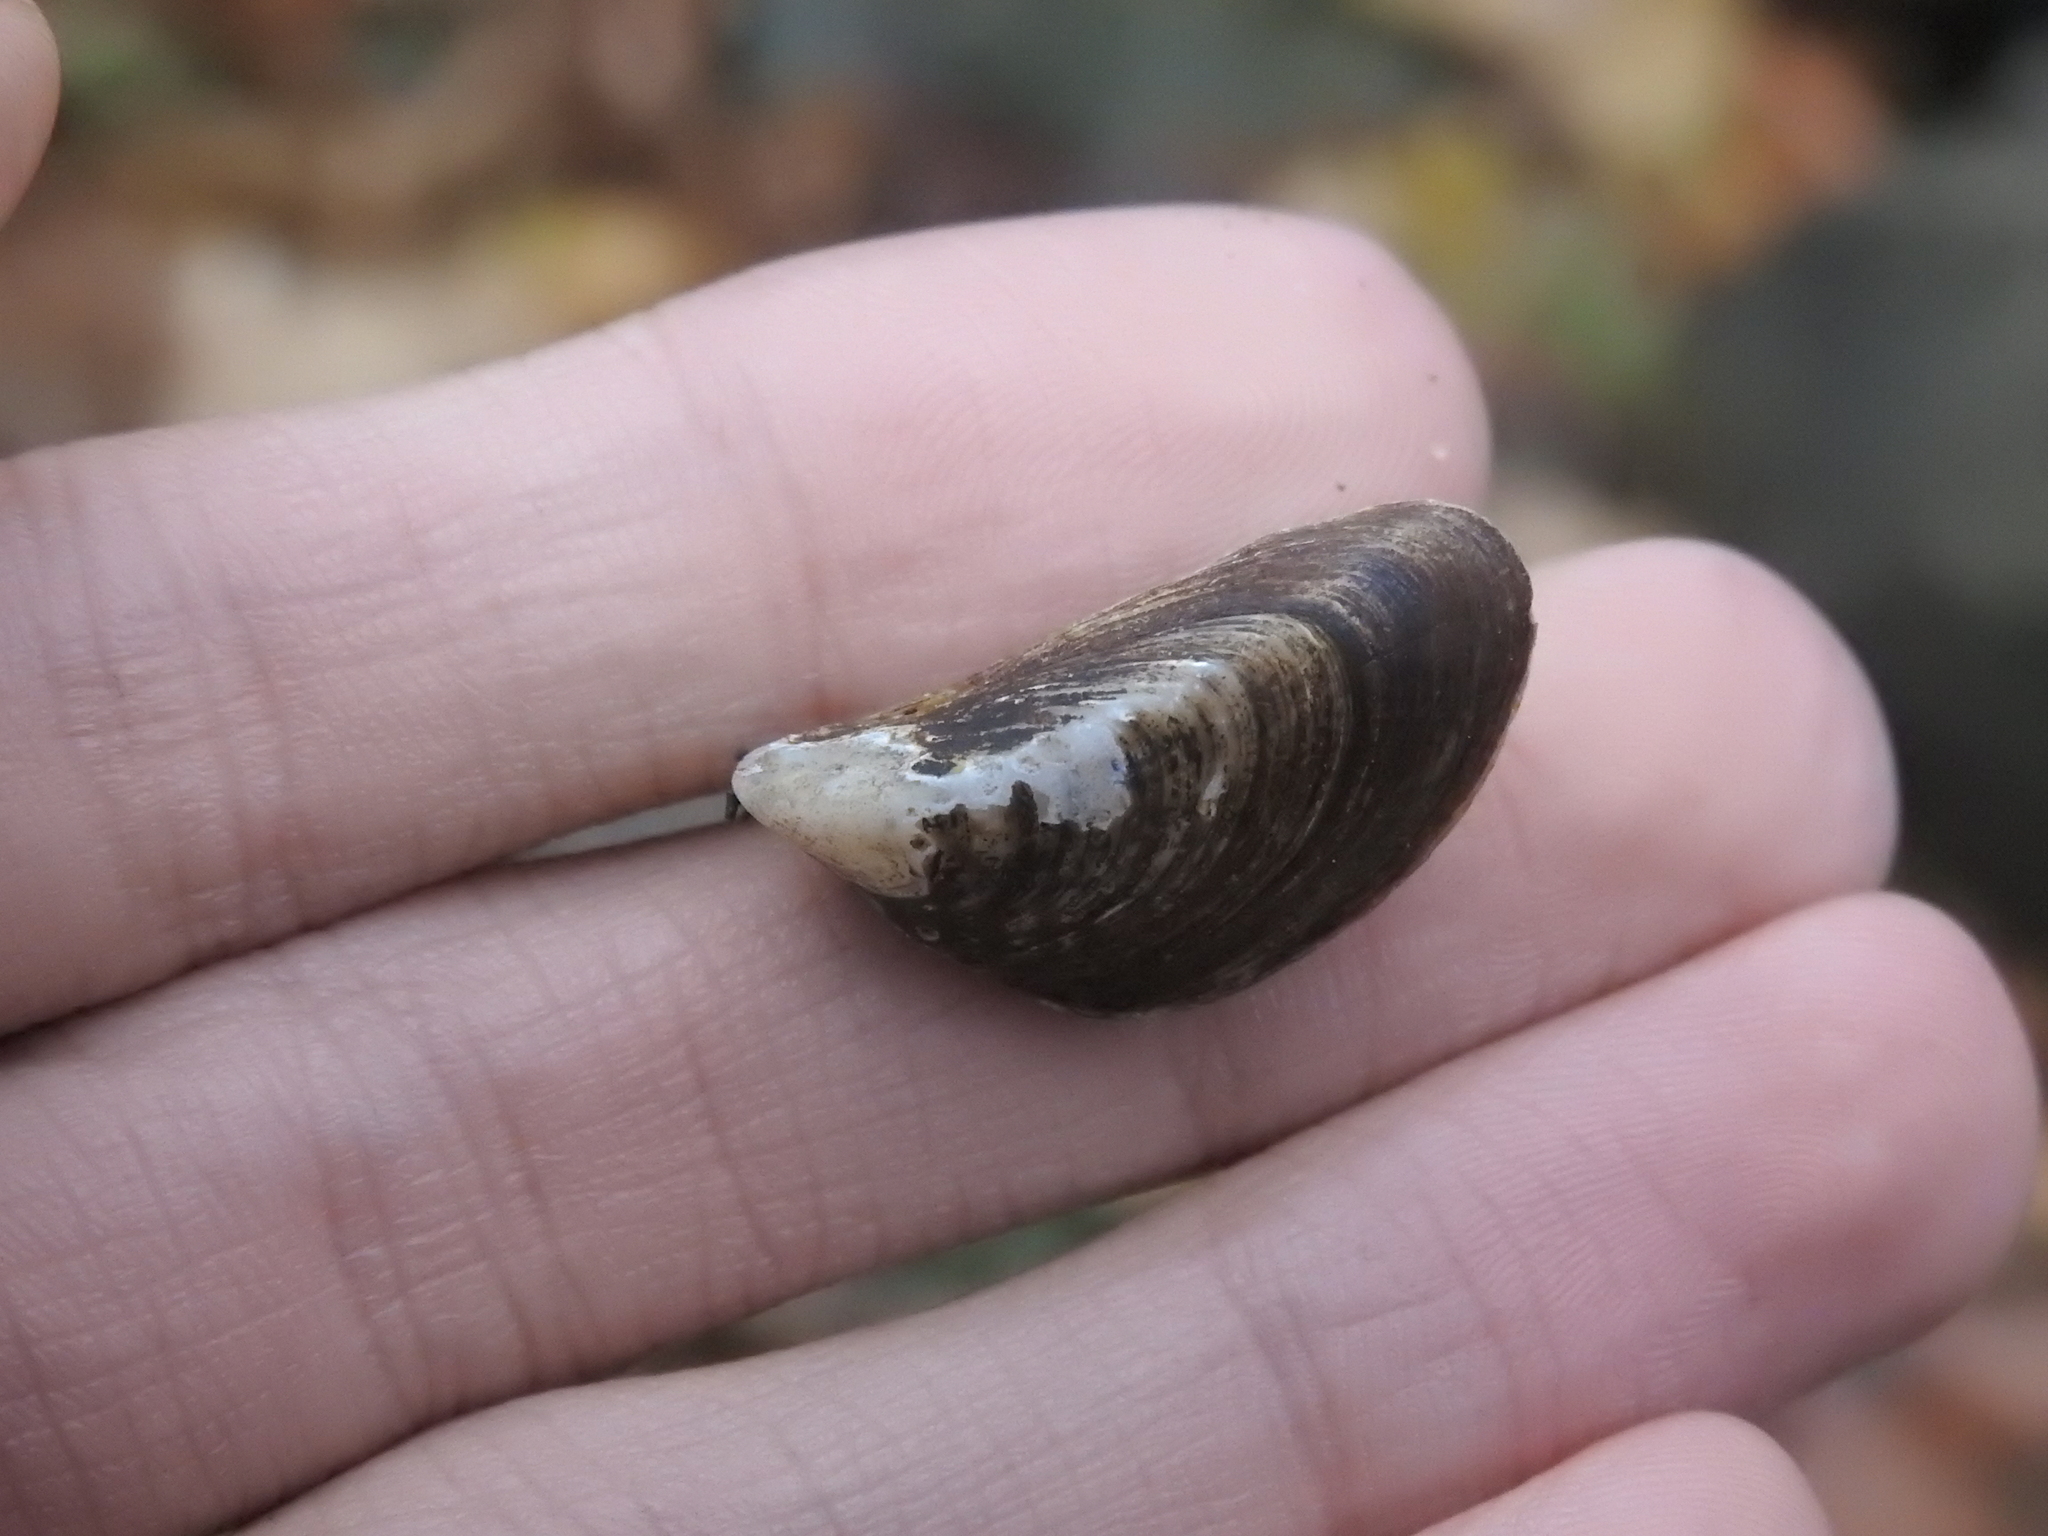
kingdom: Animalia
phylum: Mollusca
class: Bivalvia
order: Myida
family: Dreissenidae
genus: Dreissena
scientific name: Dreissena polymorpha
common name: Zebra mussel
